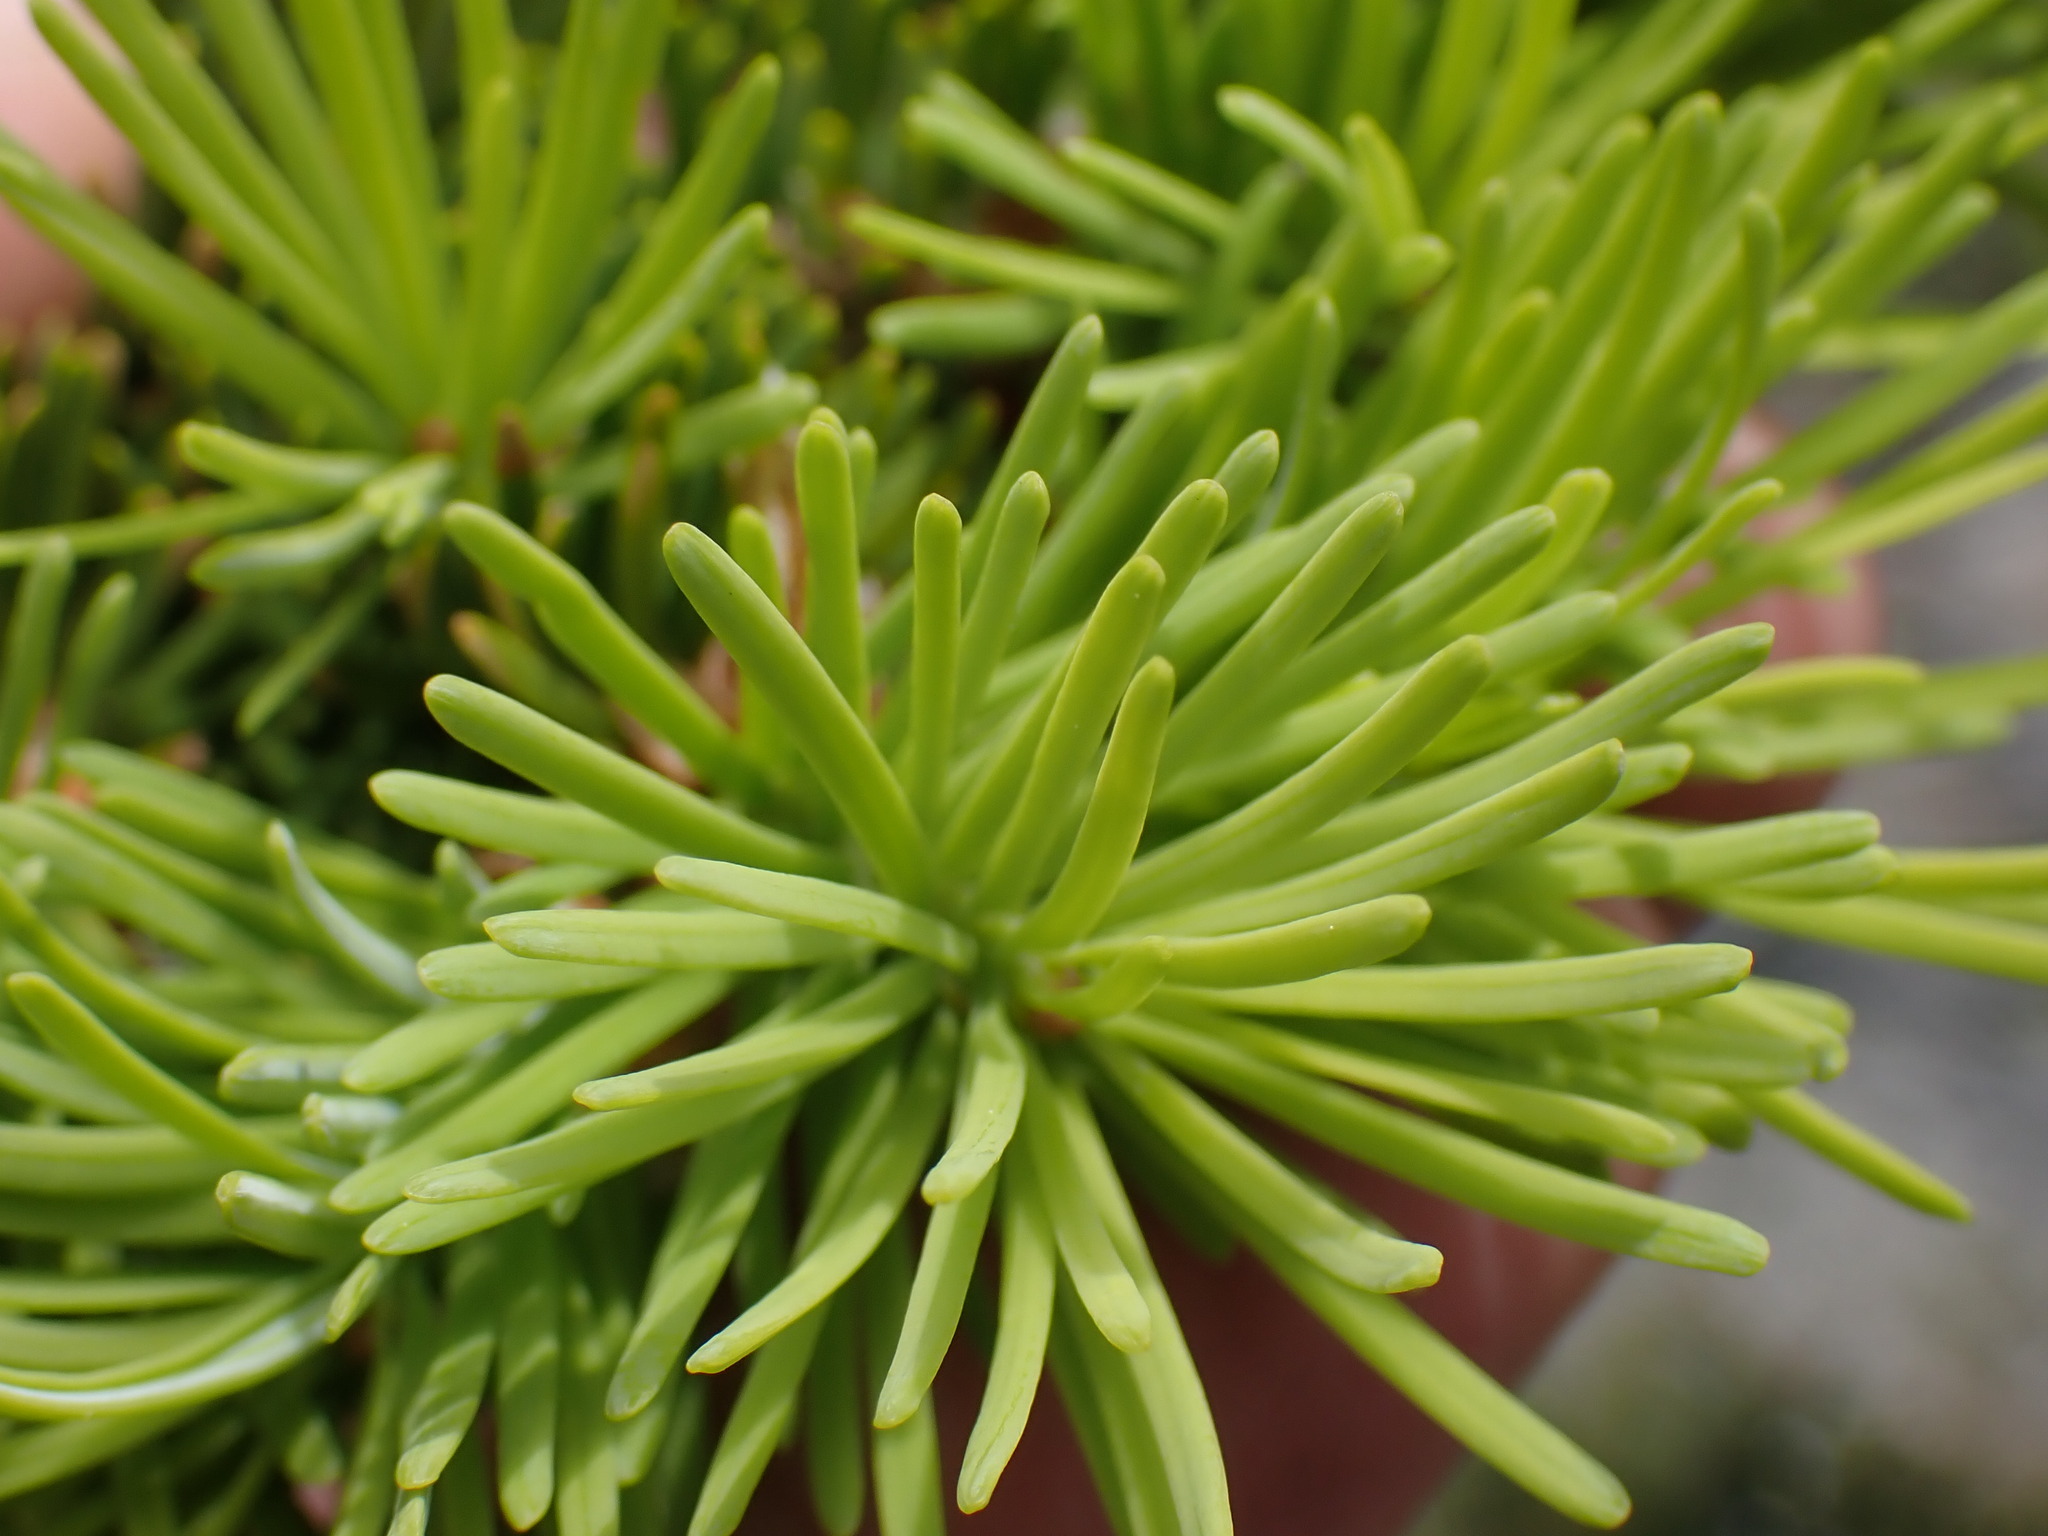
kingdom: Plantae
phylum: Tracheophyta
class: Pinopsida
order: Pinales
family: Pinaceae
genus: Pseudotsuga
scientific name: Pseudotsuga menziesii
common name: Douglas fir
